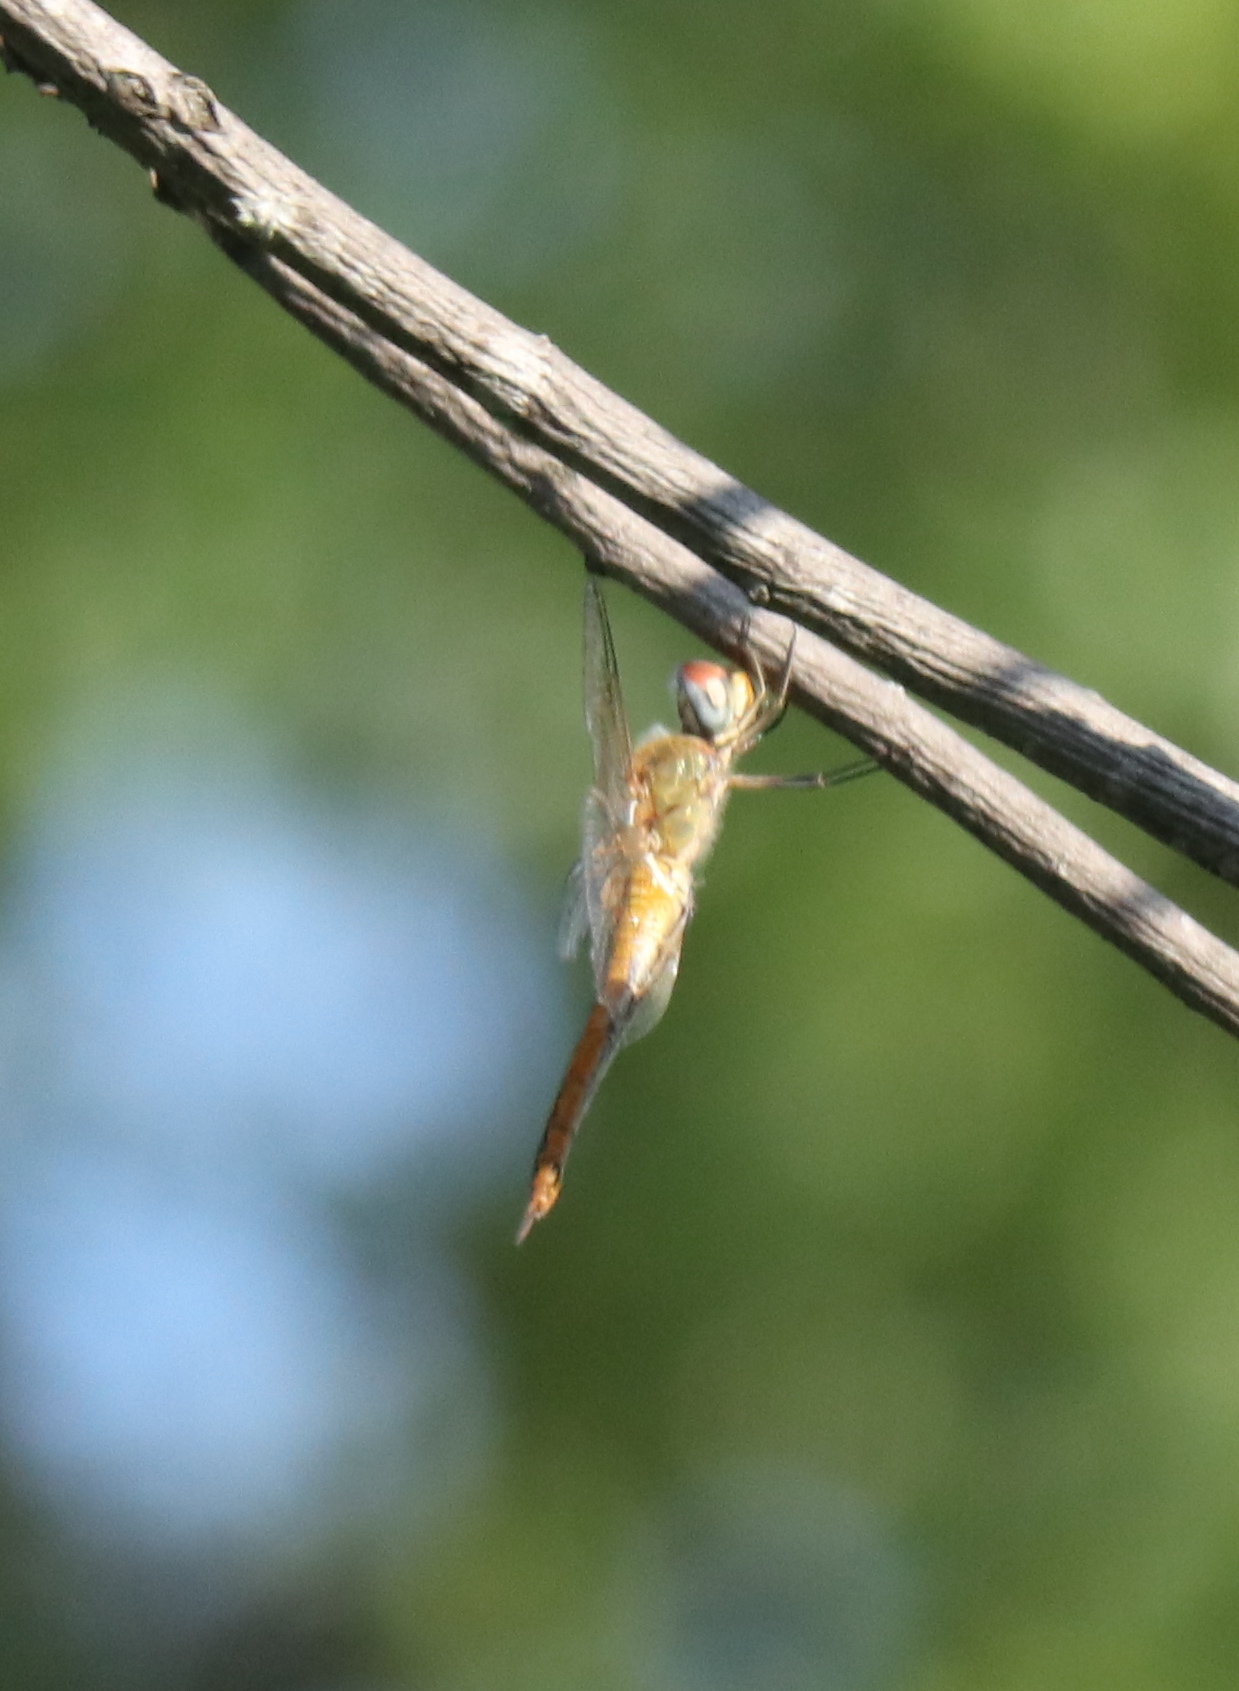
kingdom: Animalia
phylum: Arthropoda
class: Insecta
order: Odonata
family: Libellulidae
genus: Pantala
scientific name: Pantala flavescens
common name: Wandering glider
